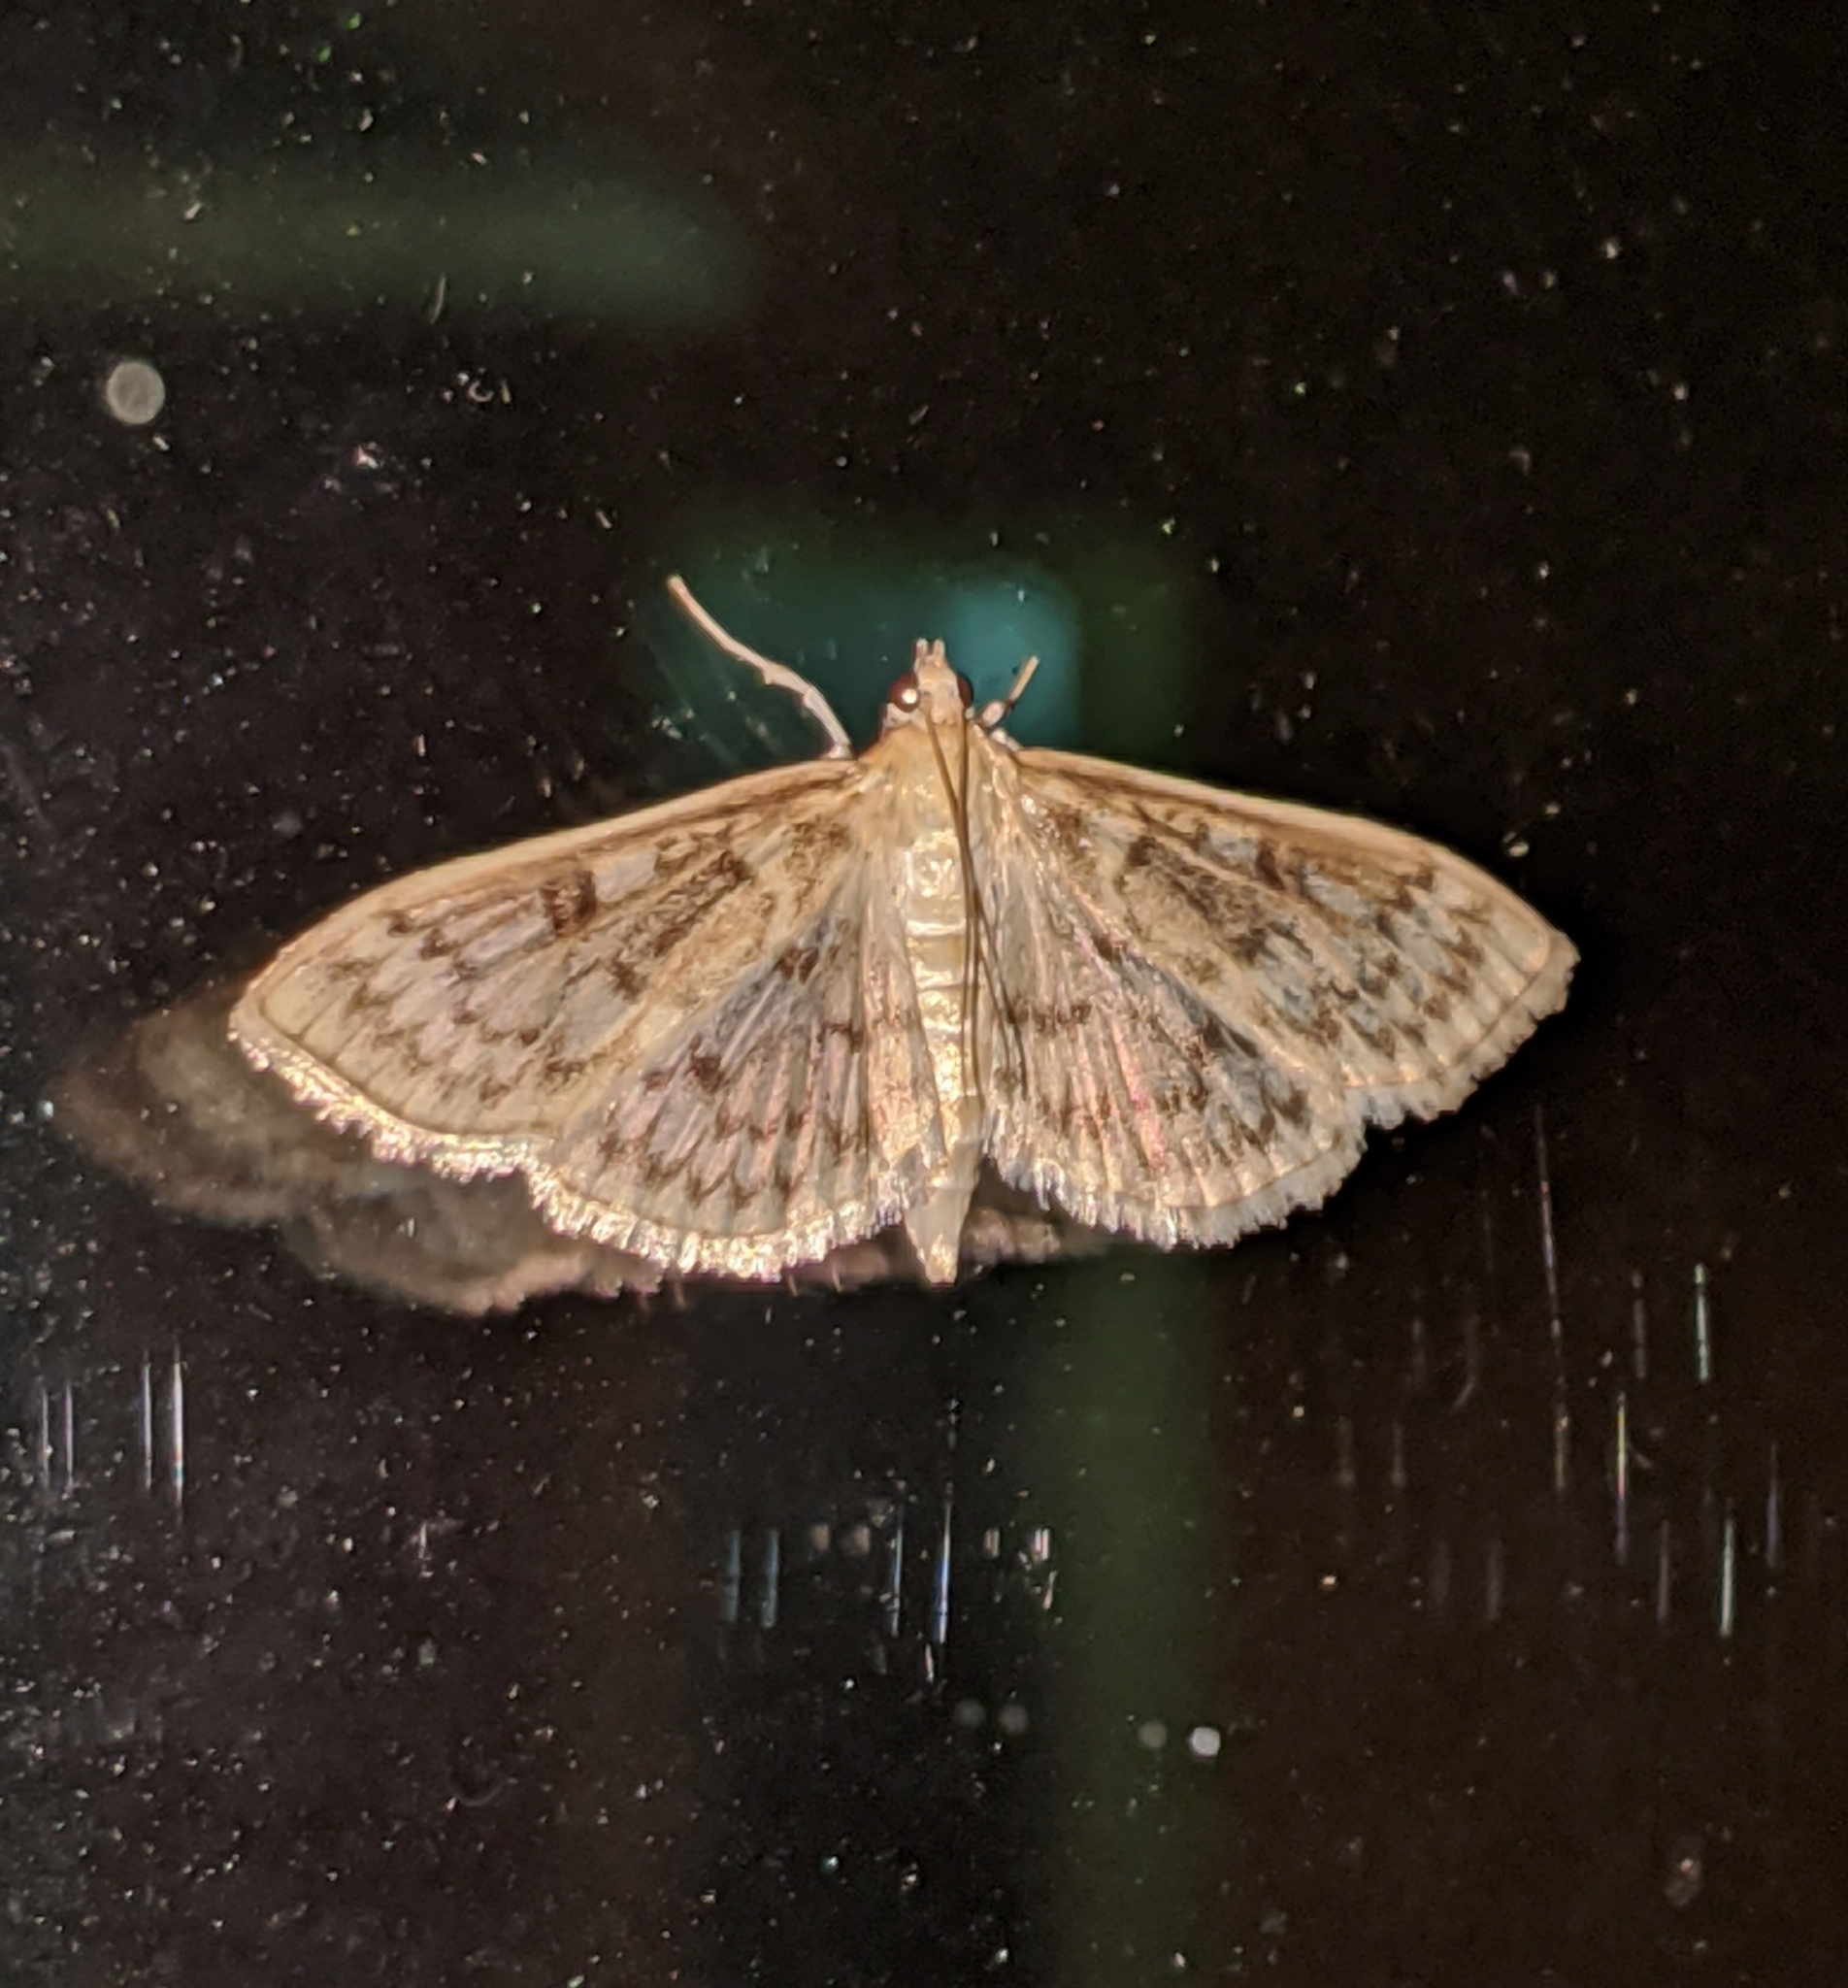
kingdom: Animalia
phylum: Arthropoda
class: Insecta
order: Lepidoptera
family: Crambidae
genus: Herpetogramma
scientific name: Herpetogramma aquilonalis
